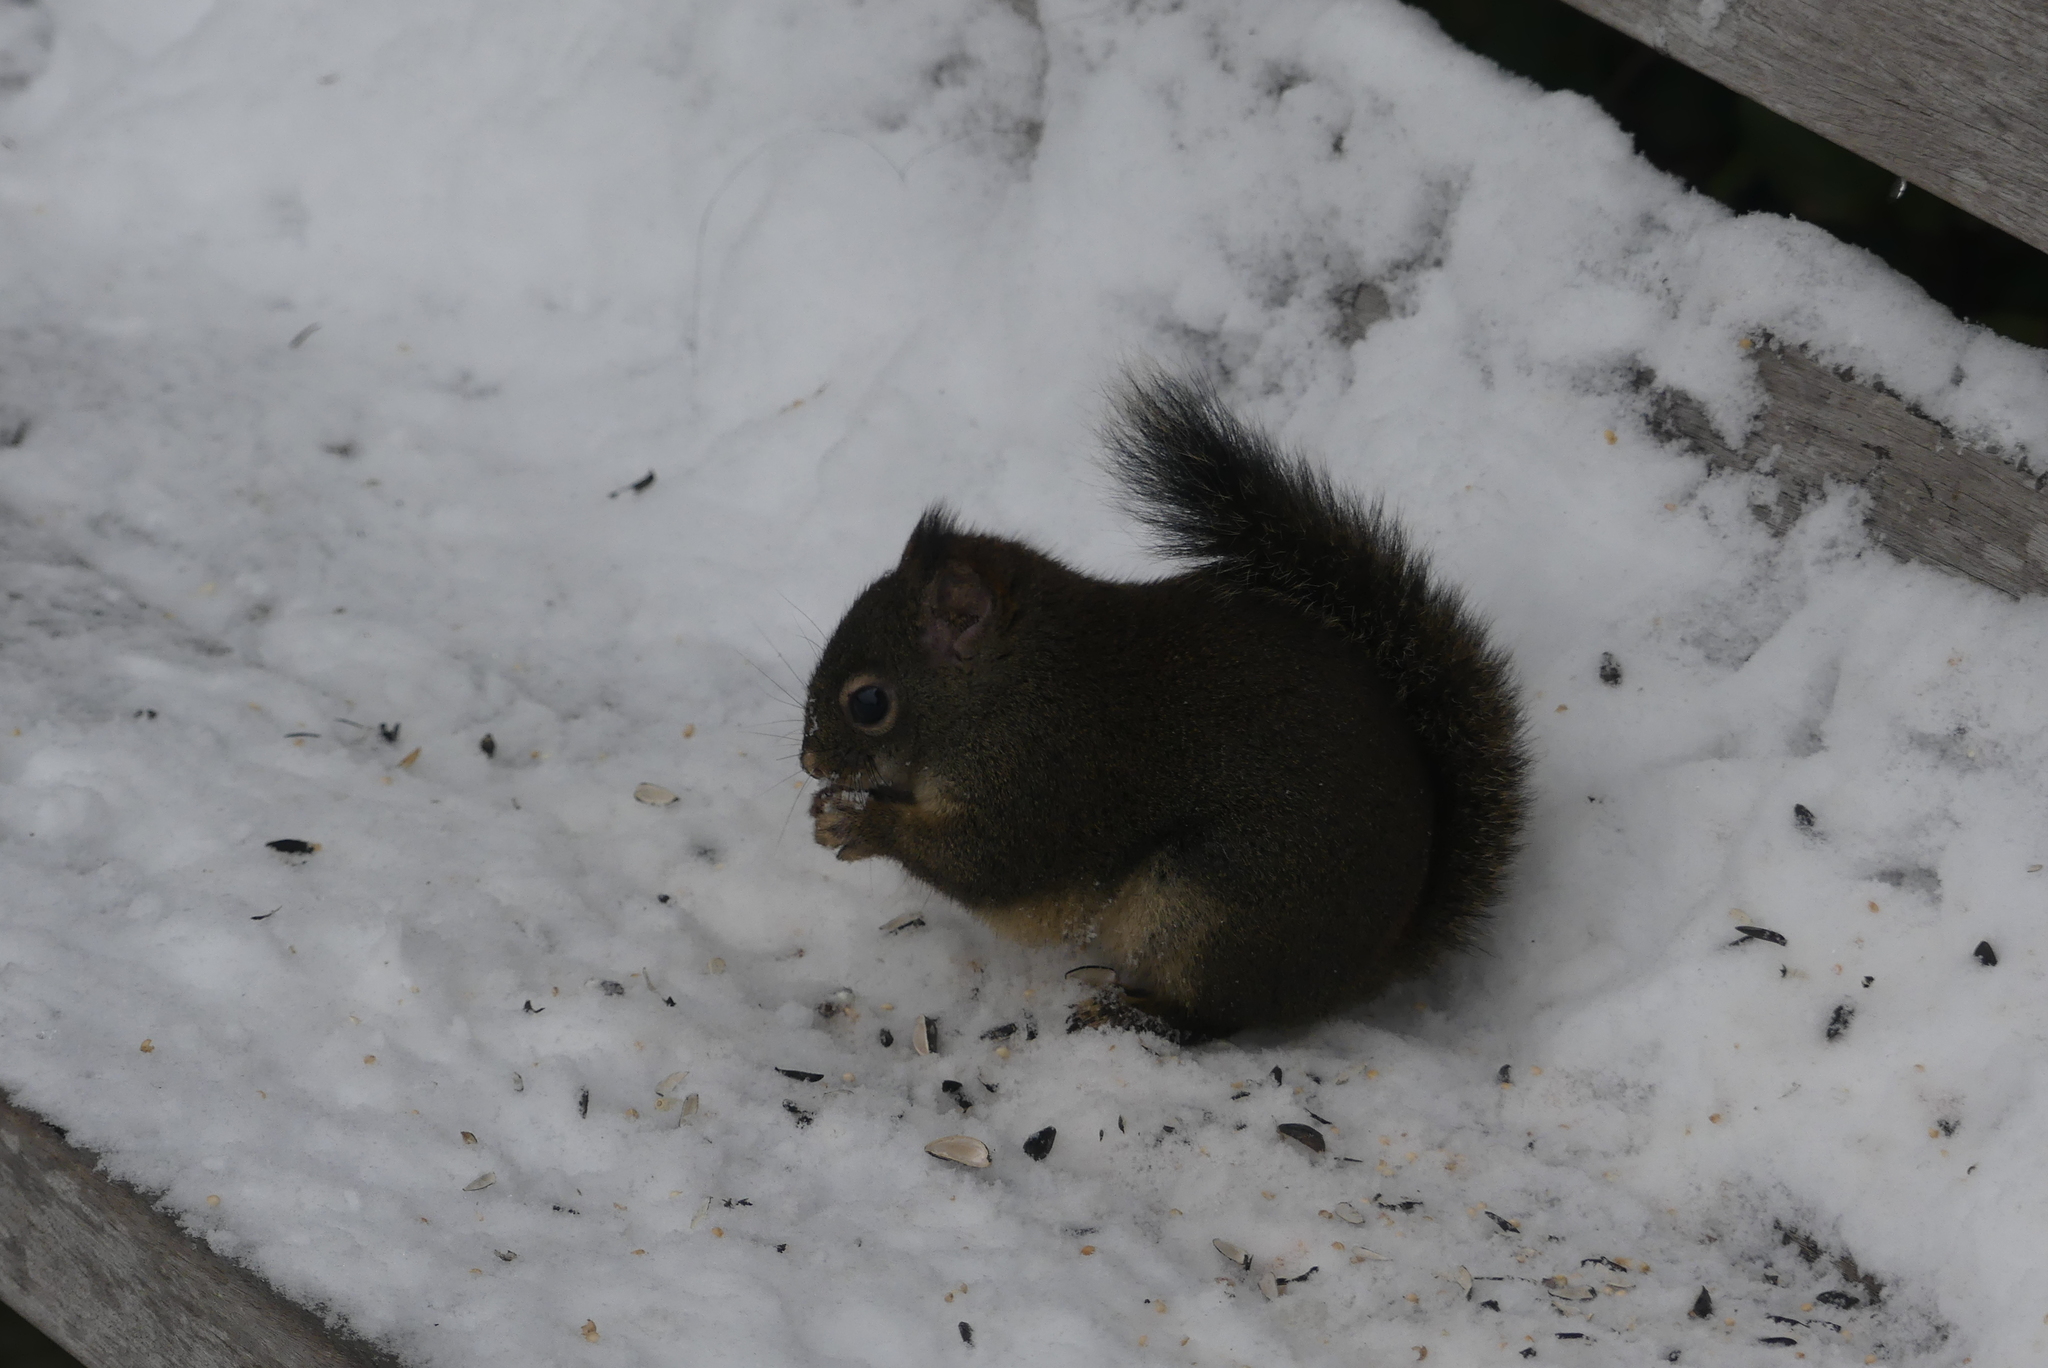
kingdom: Animalia
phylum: Chordata
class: Mammalia
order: Rodentia
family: Sciuridae
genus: Tamiasciurus
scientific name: Tamiasciurus douglasii
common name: Douglas's squirrel
